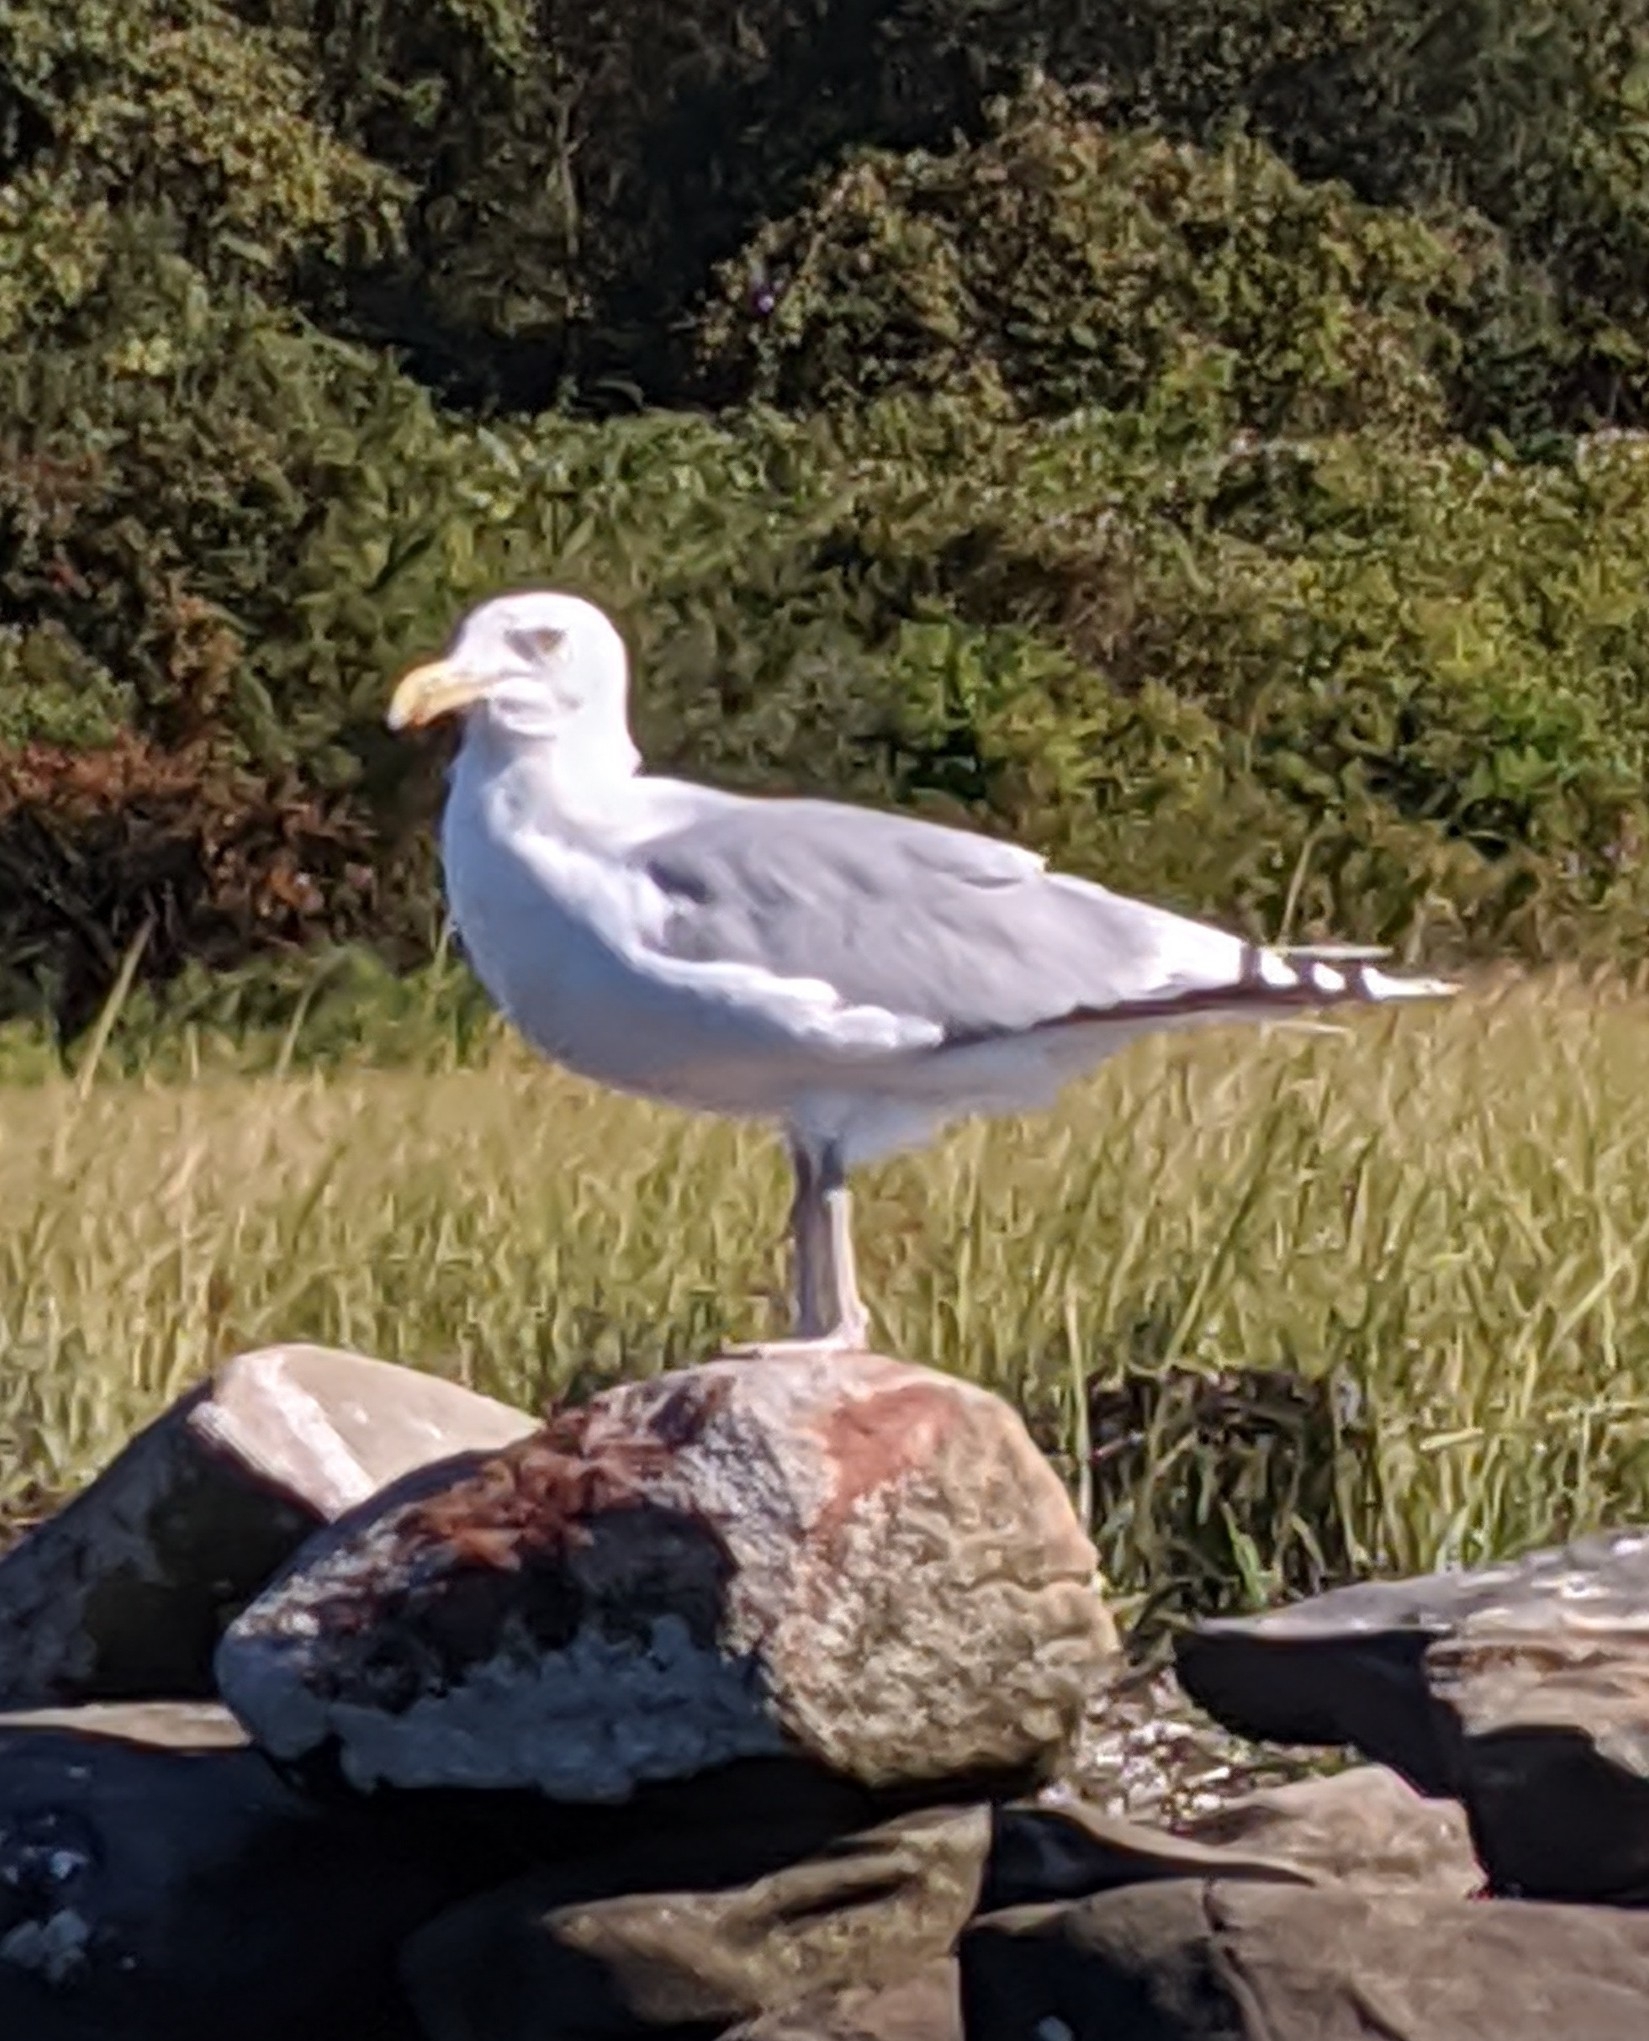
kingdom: Animalia
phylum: Chordata
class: Aves
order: Charadriiformes
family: Laridae
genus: Larus
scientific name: Larus argentatus
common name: Herring gull
